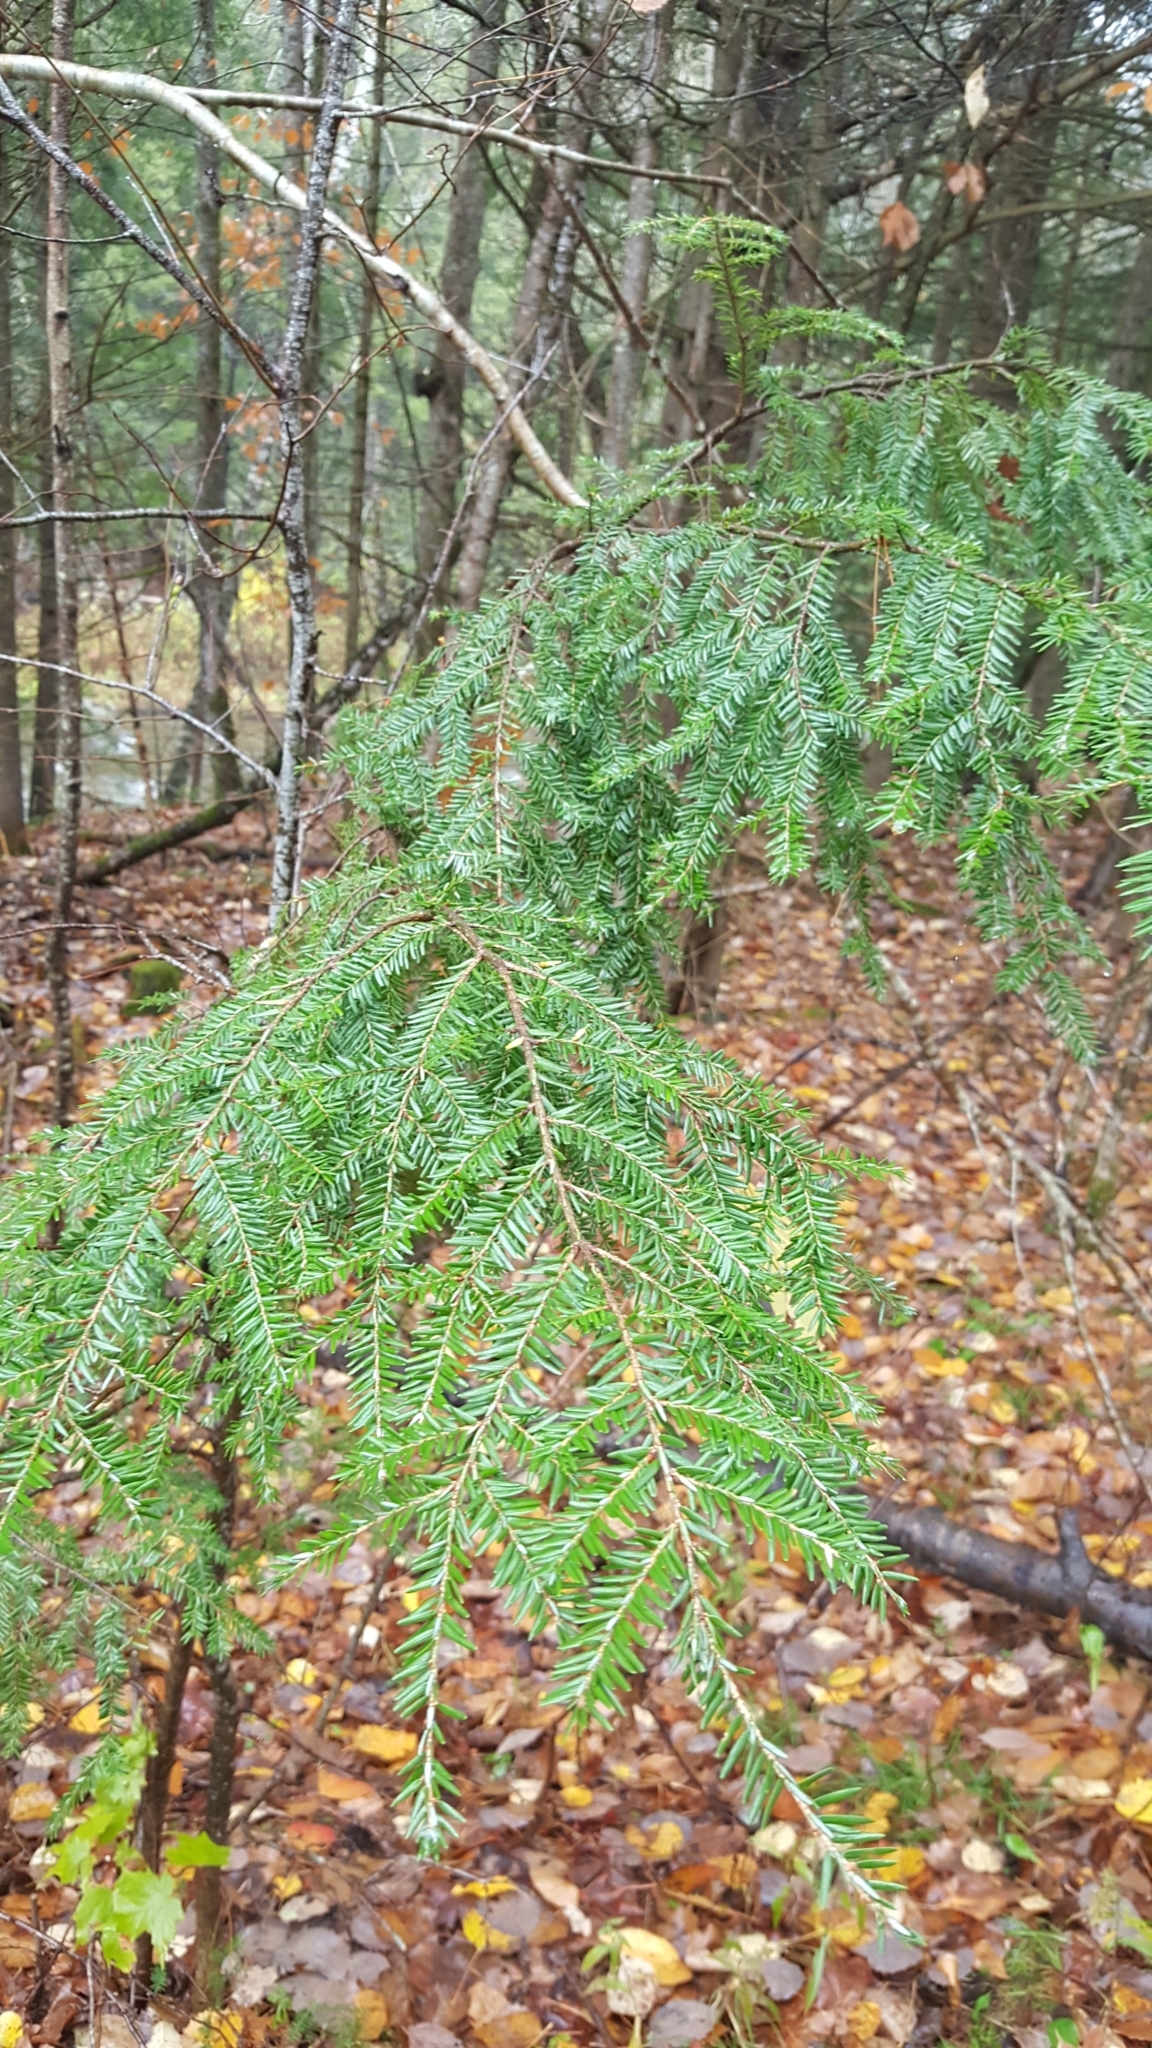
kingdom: Plantae
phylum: Tracheophyta
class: Pinopsida
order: Pinales
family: Pinaceae
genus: Tsuga
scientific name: Tsuga canadensis
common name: Eastern hemlock
